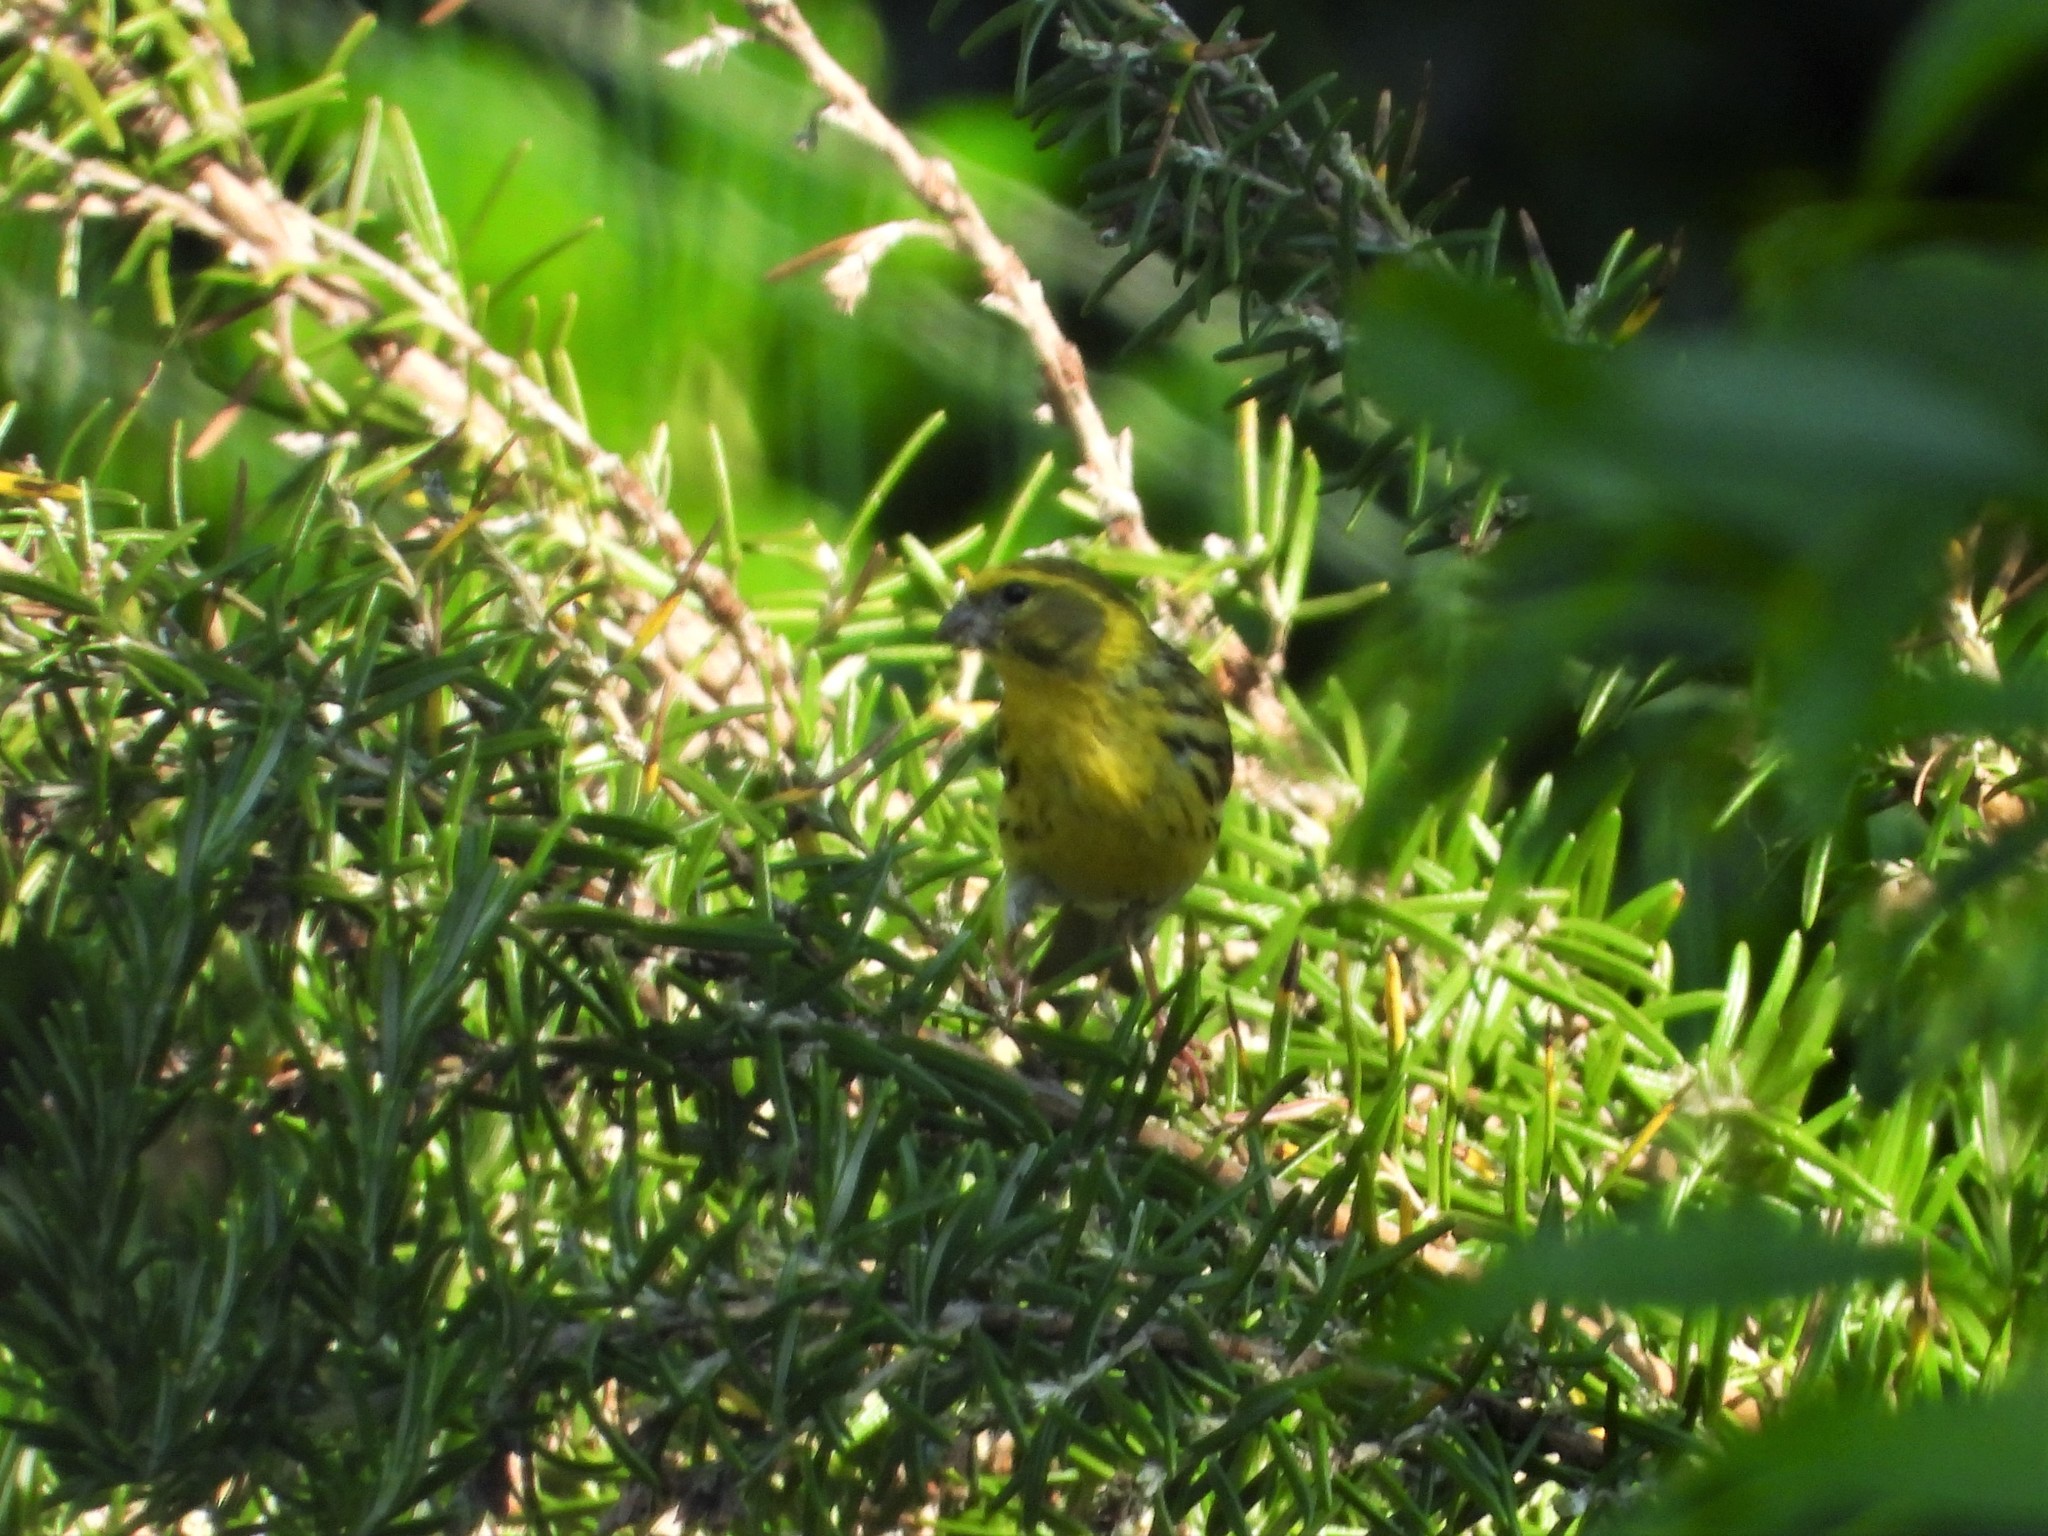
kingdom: Animalia
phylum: Chordata
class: Aves
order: Passeriformes
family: Fringillidae
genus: Serinus
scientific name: Serinus serinus
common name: European serin
